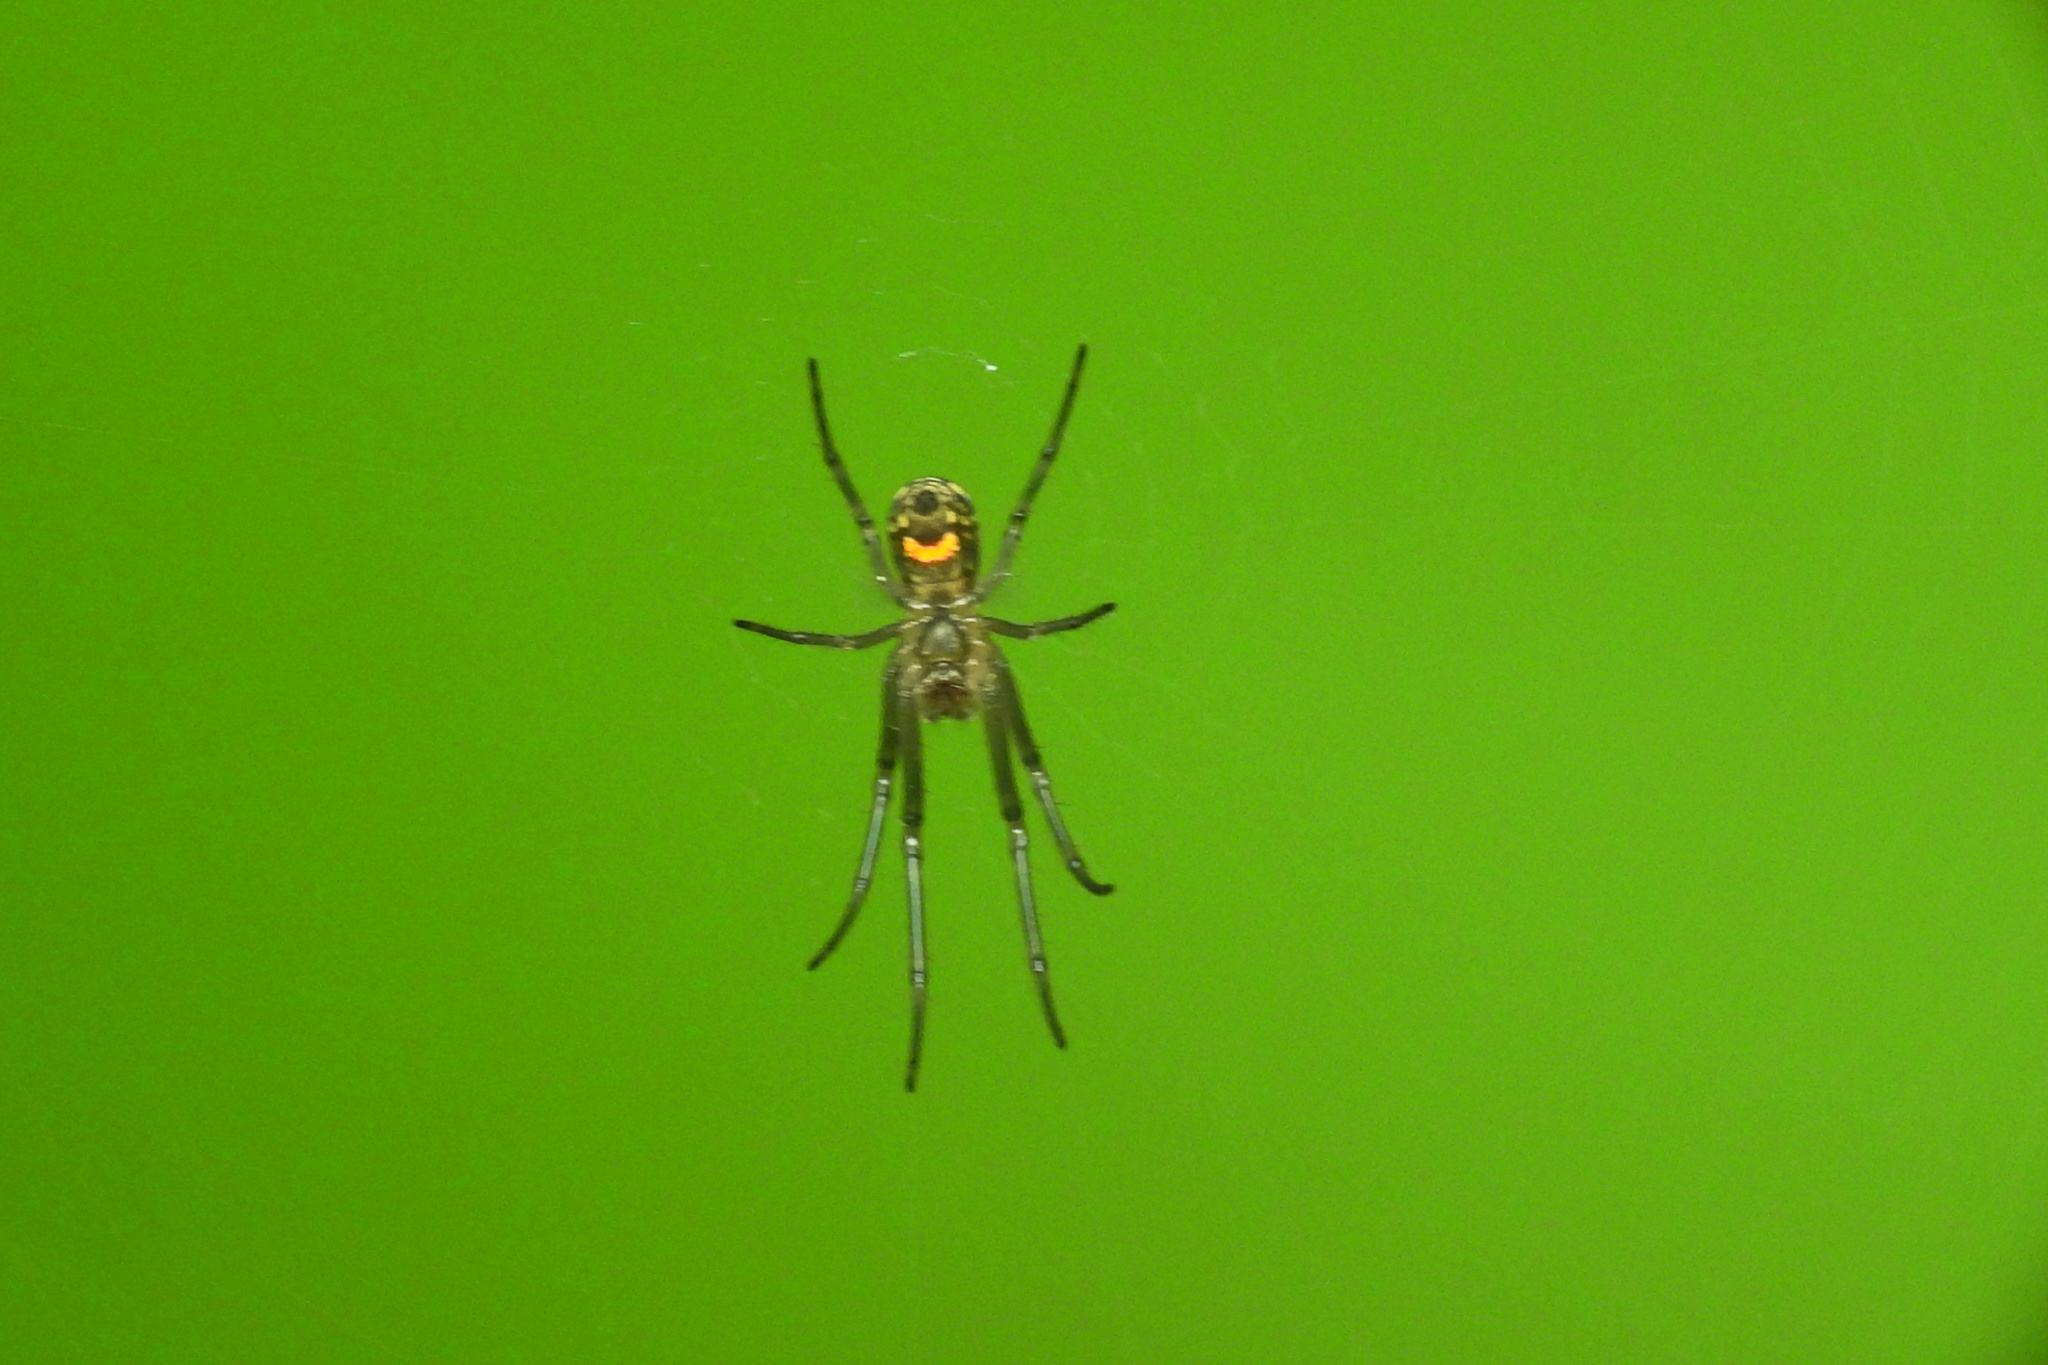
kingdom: Animalia
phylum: Arthropoda
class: Arachnida
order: Araneae
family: Tetragnathidae
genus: Leucauge
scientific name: Leucauge venusta
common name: Longjawed orb weavers
